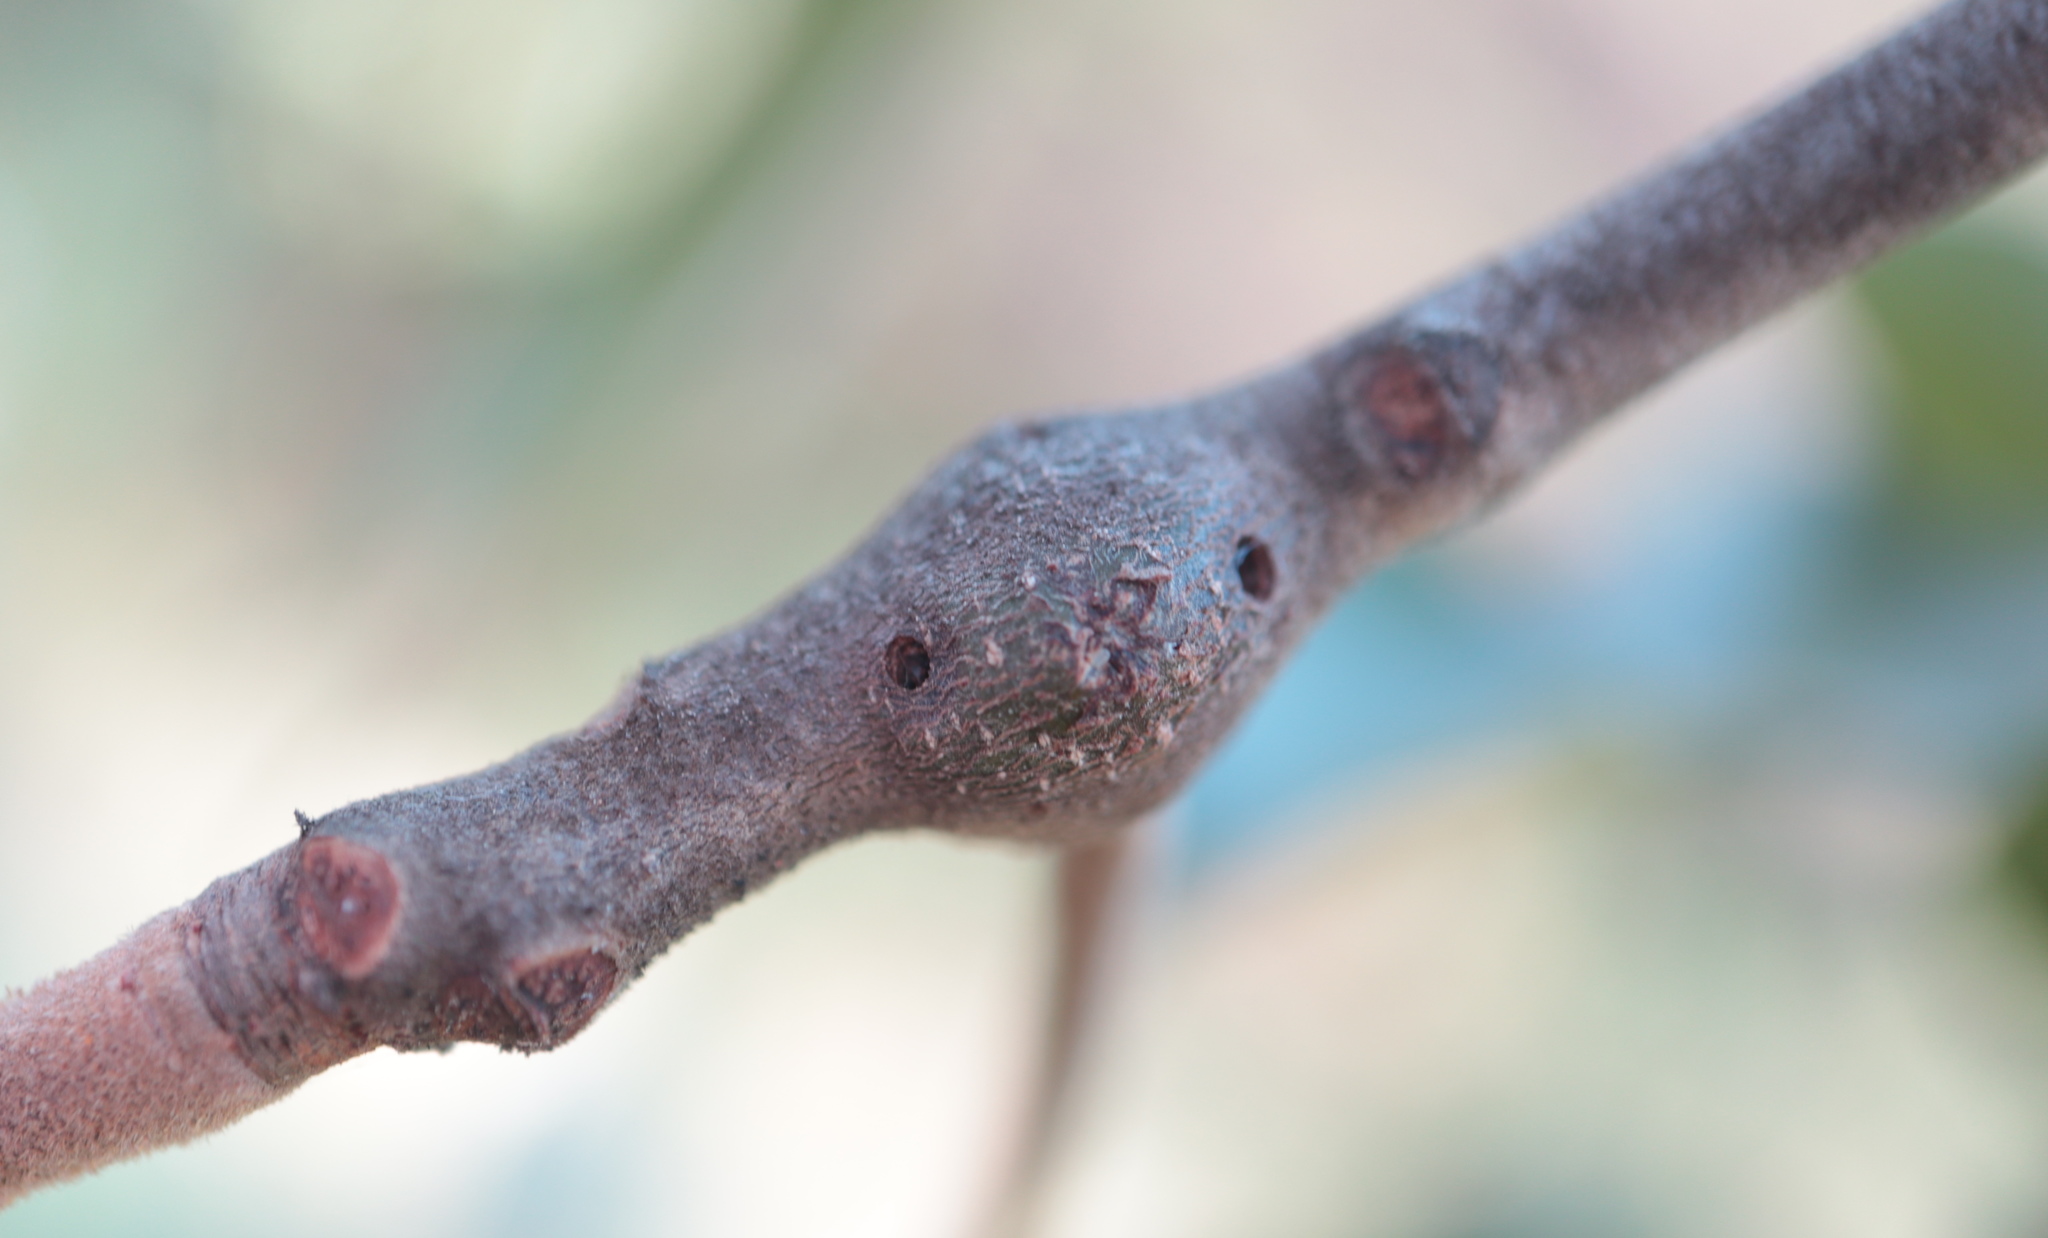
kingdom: Animalia
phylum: Arthropoda
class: Insecta
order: Hymenoptera
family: Cynipidae
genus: Zapatella
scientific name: Zapatella quercusmedullae
